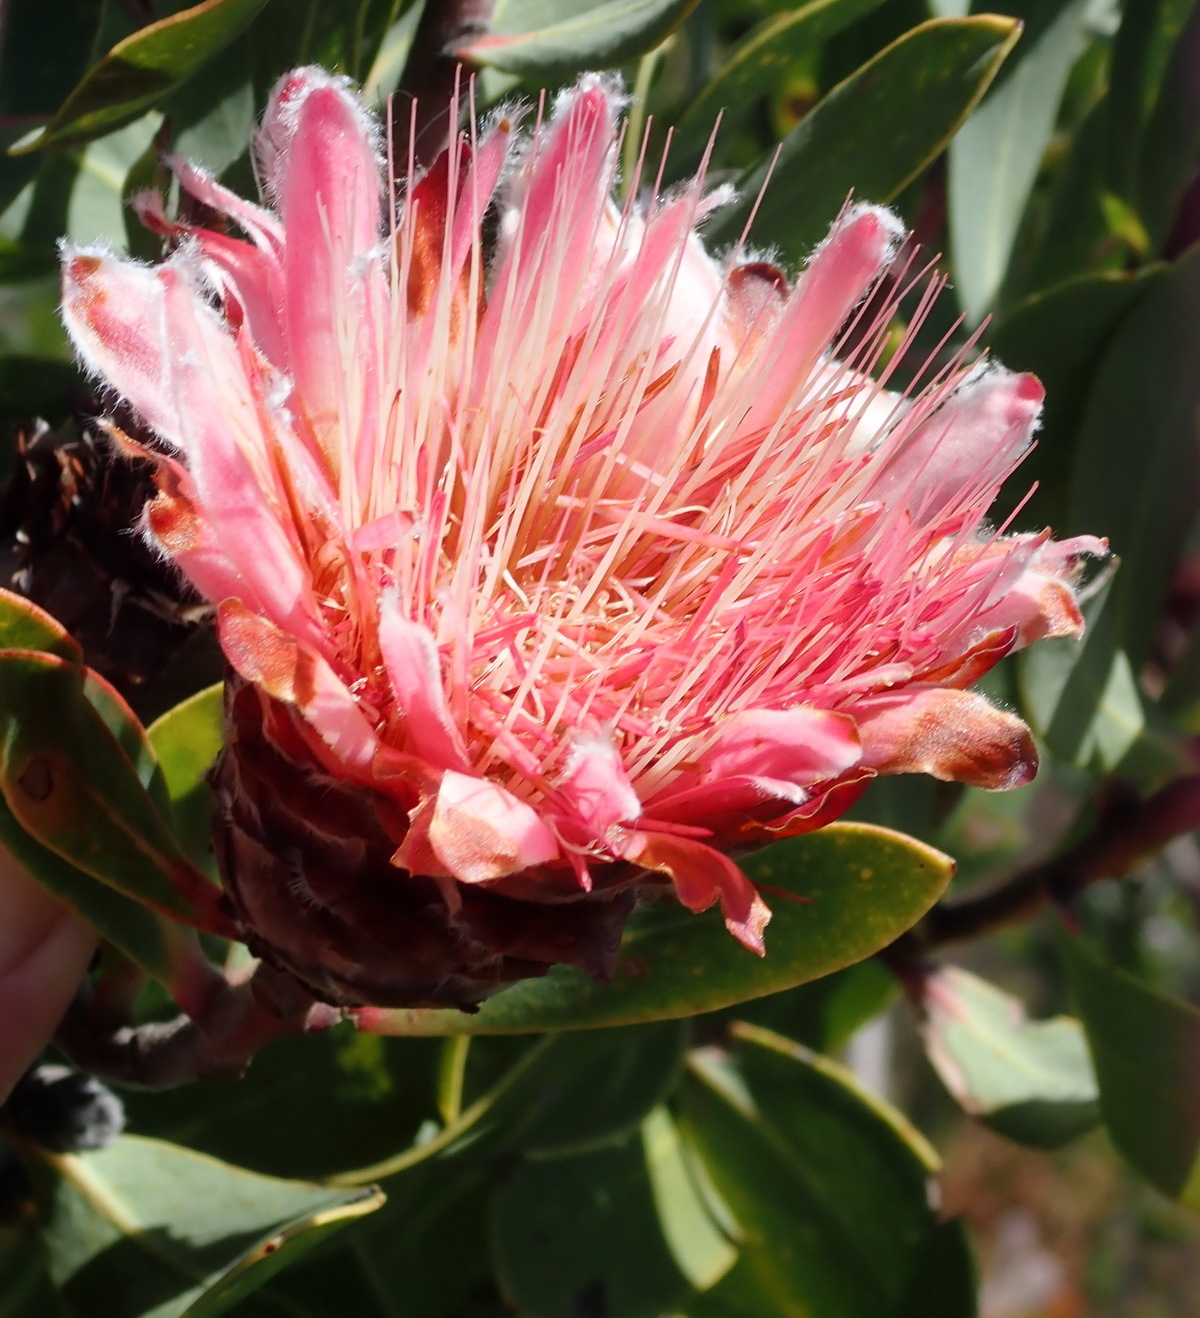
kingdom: Plantae
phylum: Tracheophyta
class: Magnoliopsida
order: Proteales
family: Proteaceae
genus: Protea
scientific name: Protea punctata
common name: Water sugarbush
